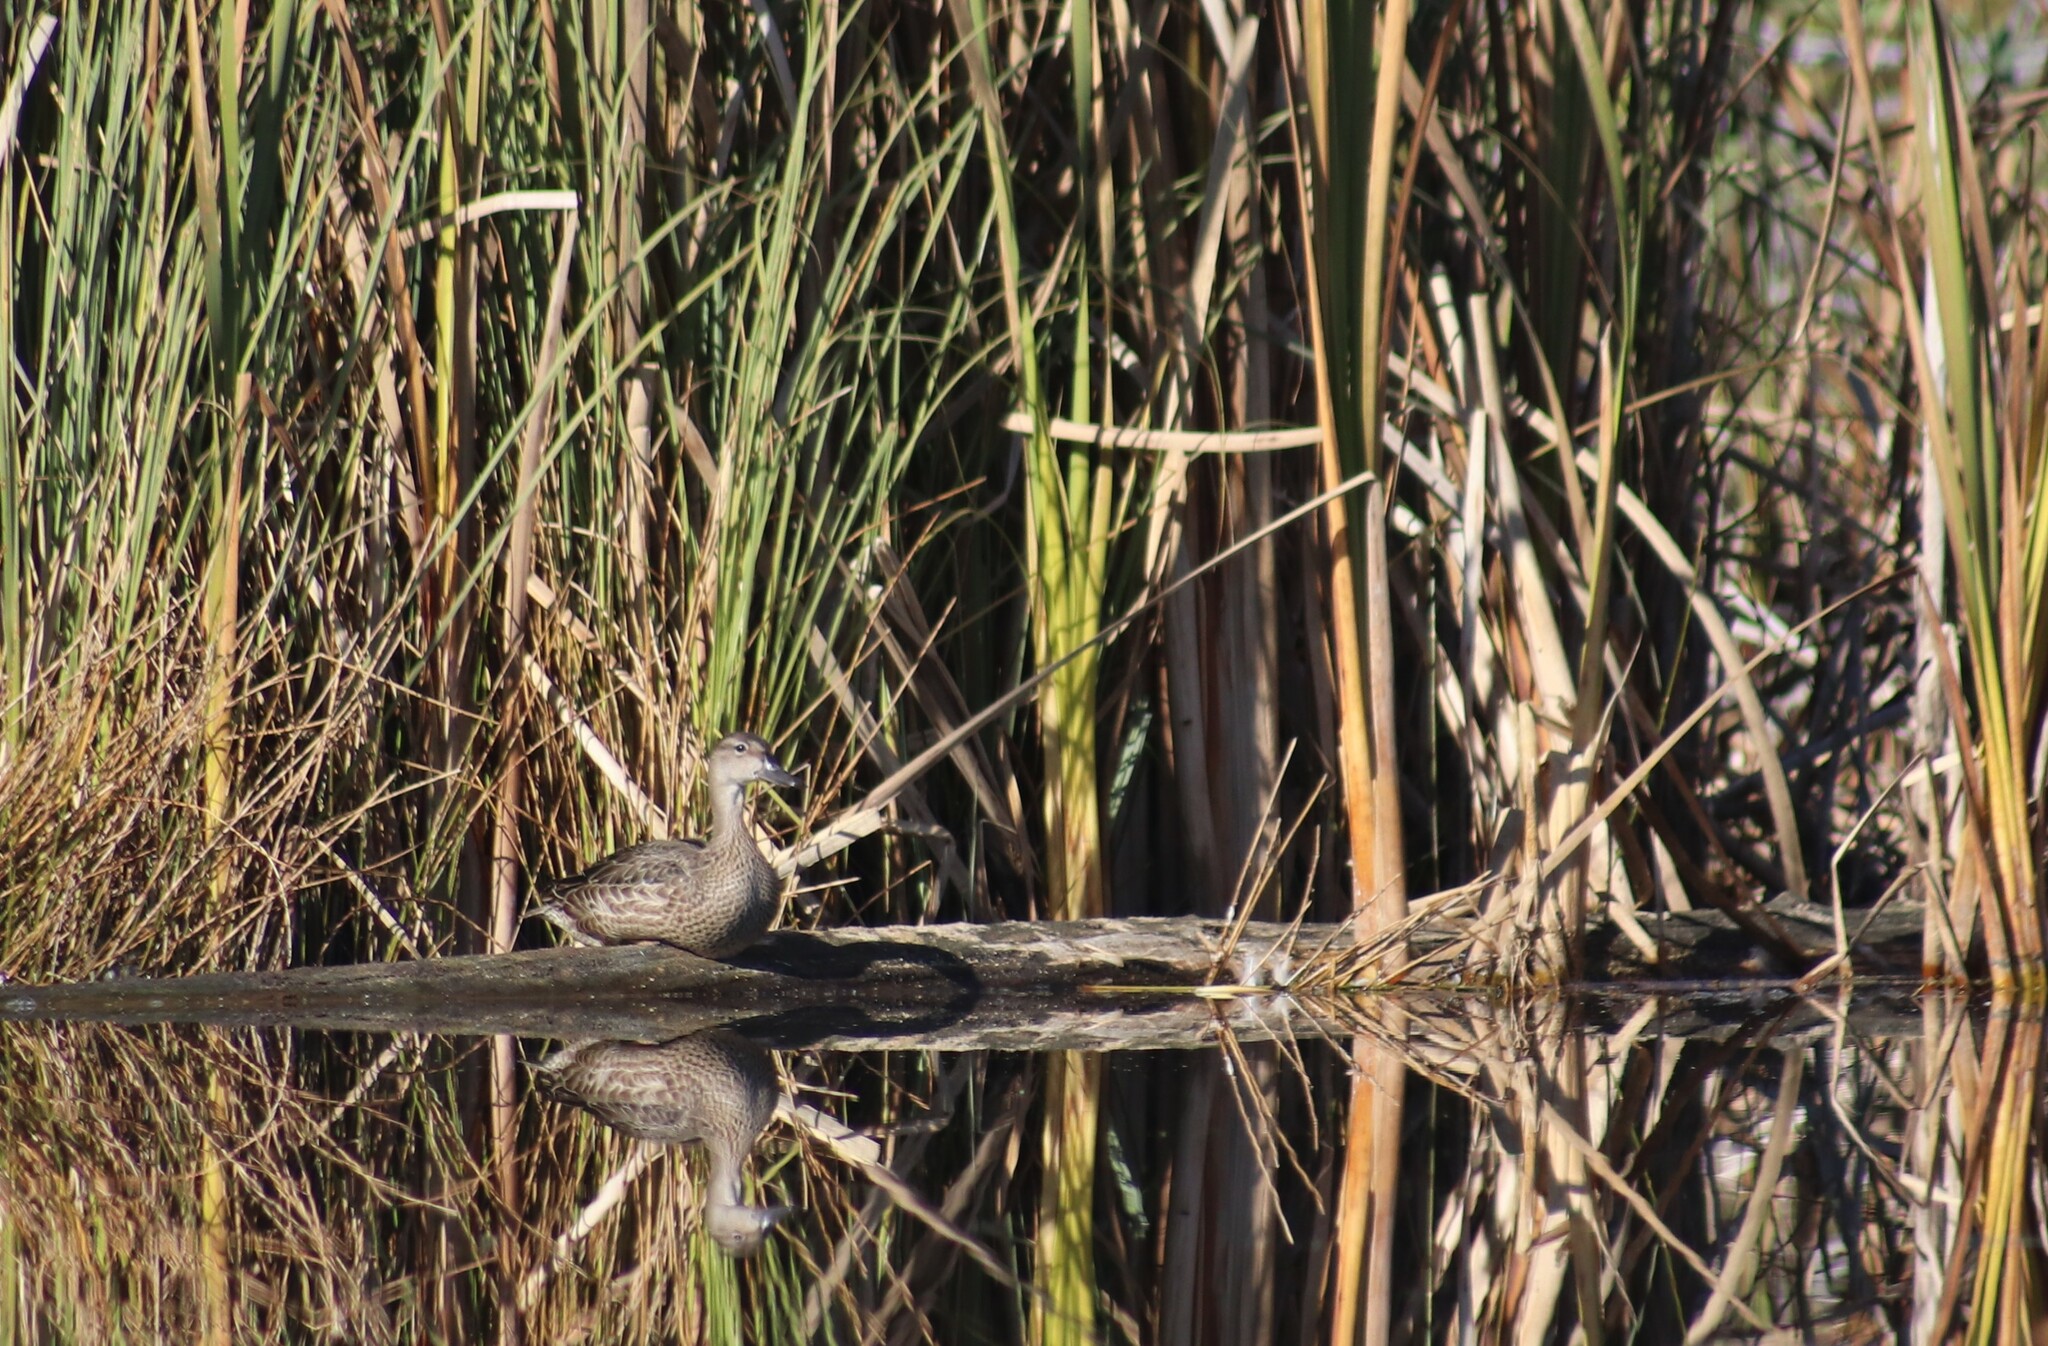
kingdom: Animalia
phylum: Chordata
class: Aves
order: Anseriformes
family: Anatidae
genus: Spatula
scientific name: Spatula discors
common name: Blue-winged teal
